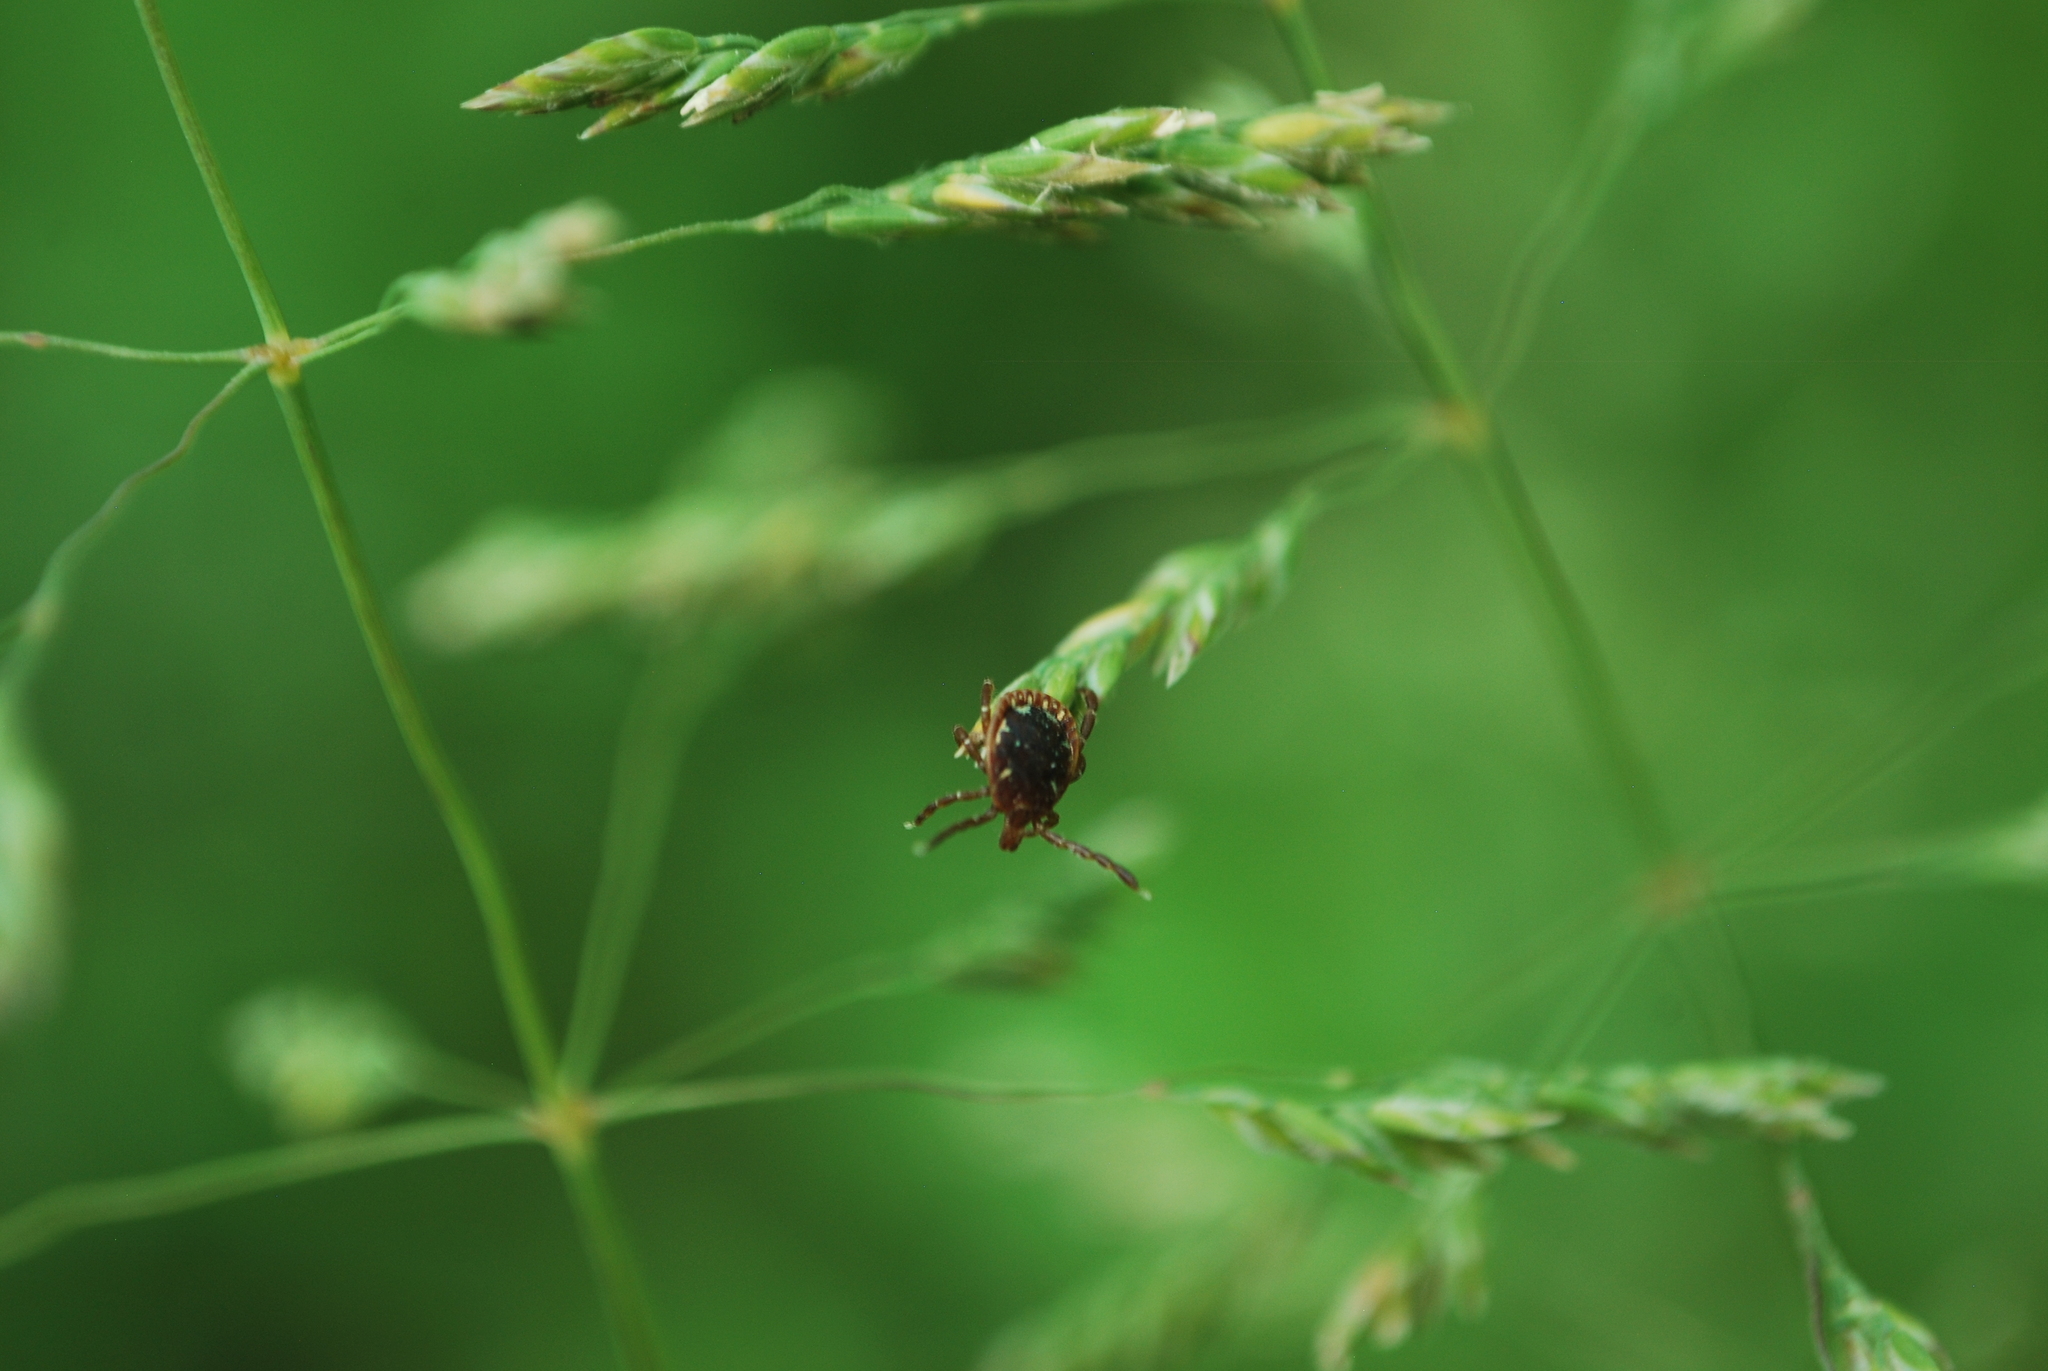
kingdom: Animalia
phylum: Arthropoda
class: Arachnida
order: Ixodida
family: Ixodidae
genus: Amblyomma
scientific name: Amblyomma americanum
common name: Lone star tick
